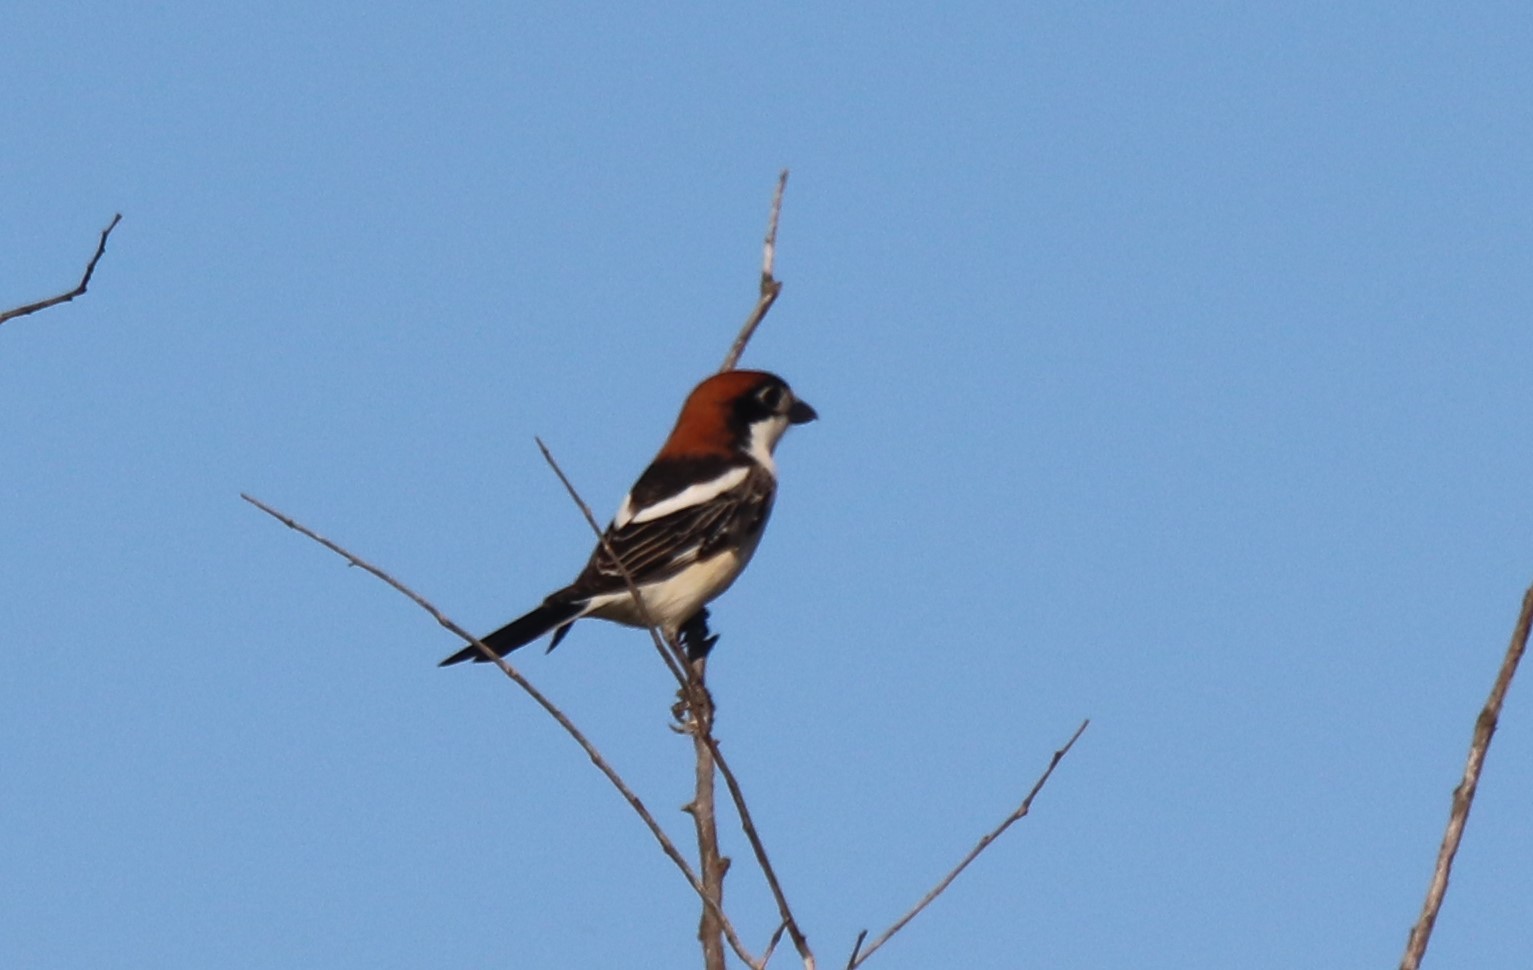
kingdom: Animalia
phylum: Chordata
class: Aves
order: Passeriformes
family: Laniidae
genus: Lanius
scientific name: Lanius senator
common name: Woodchat shrike
